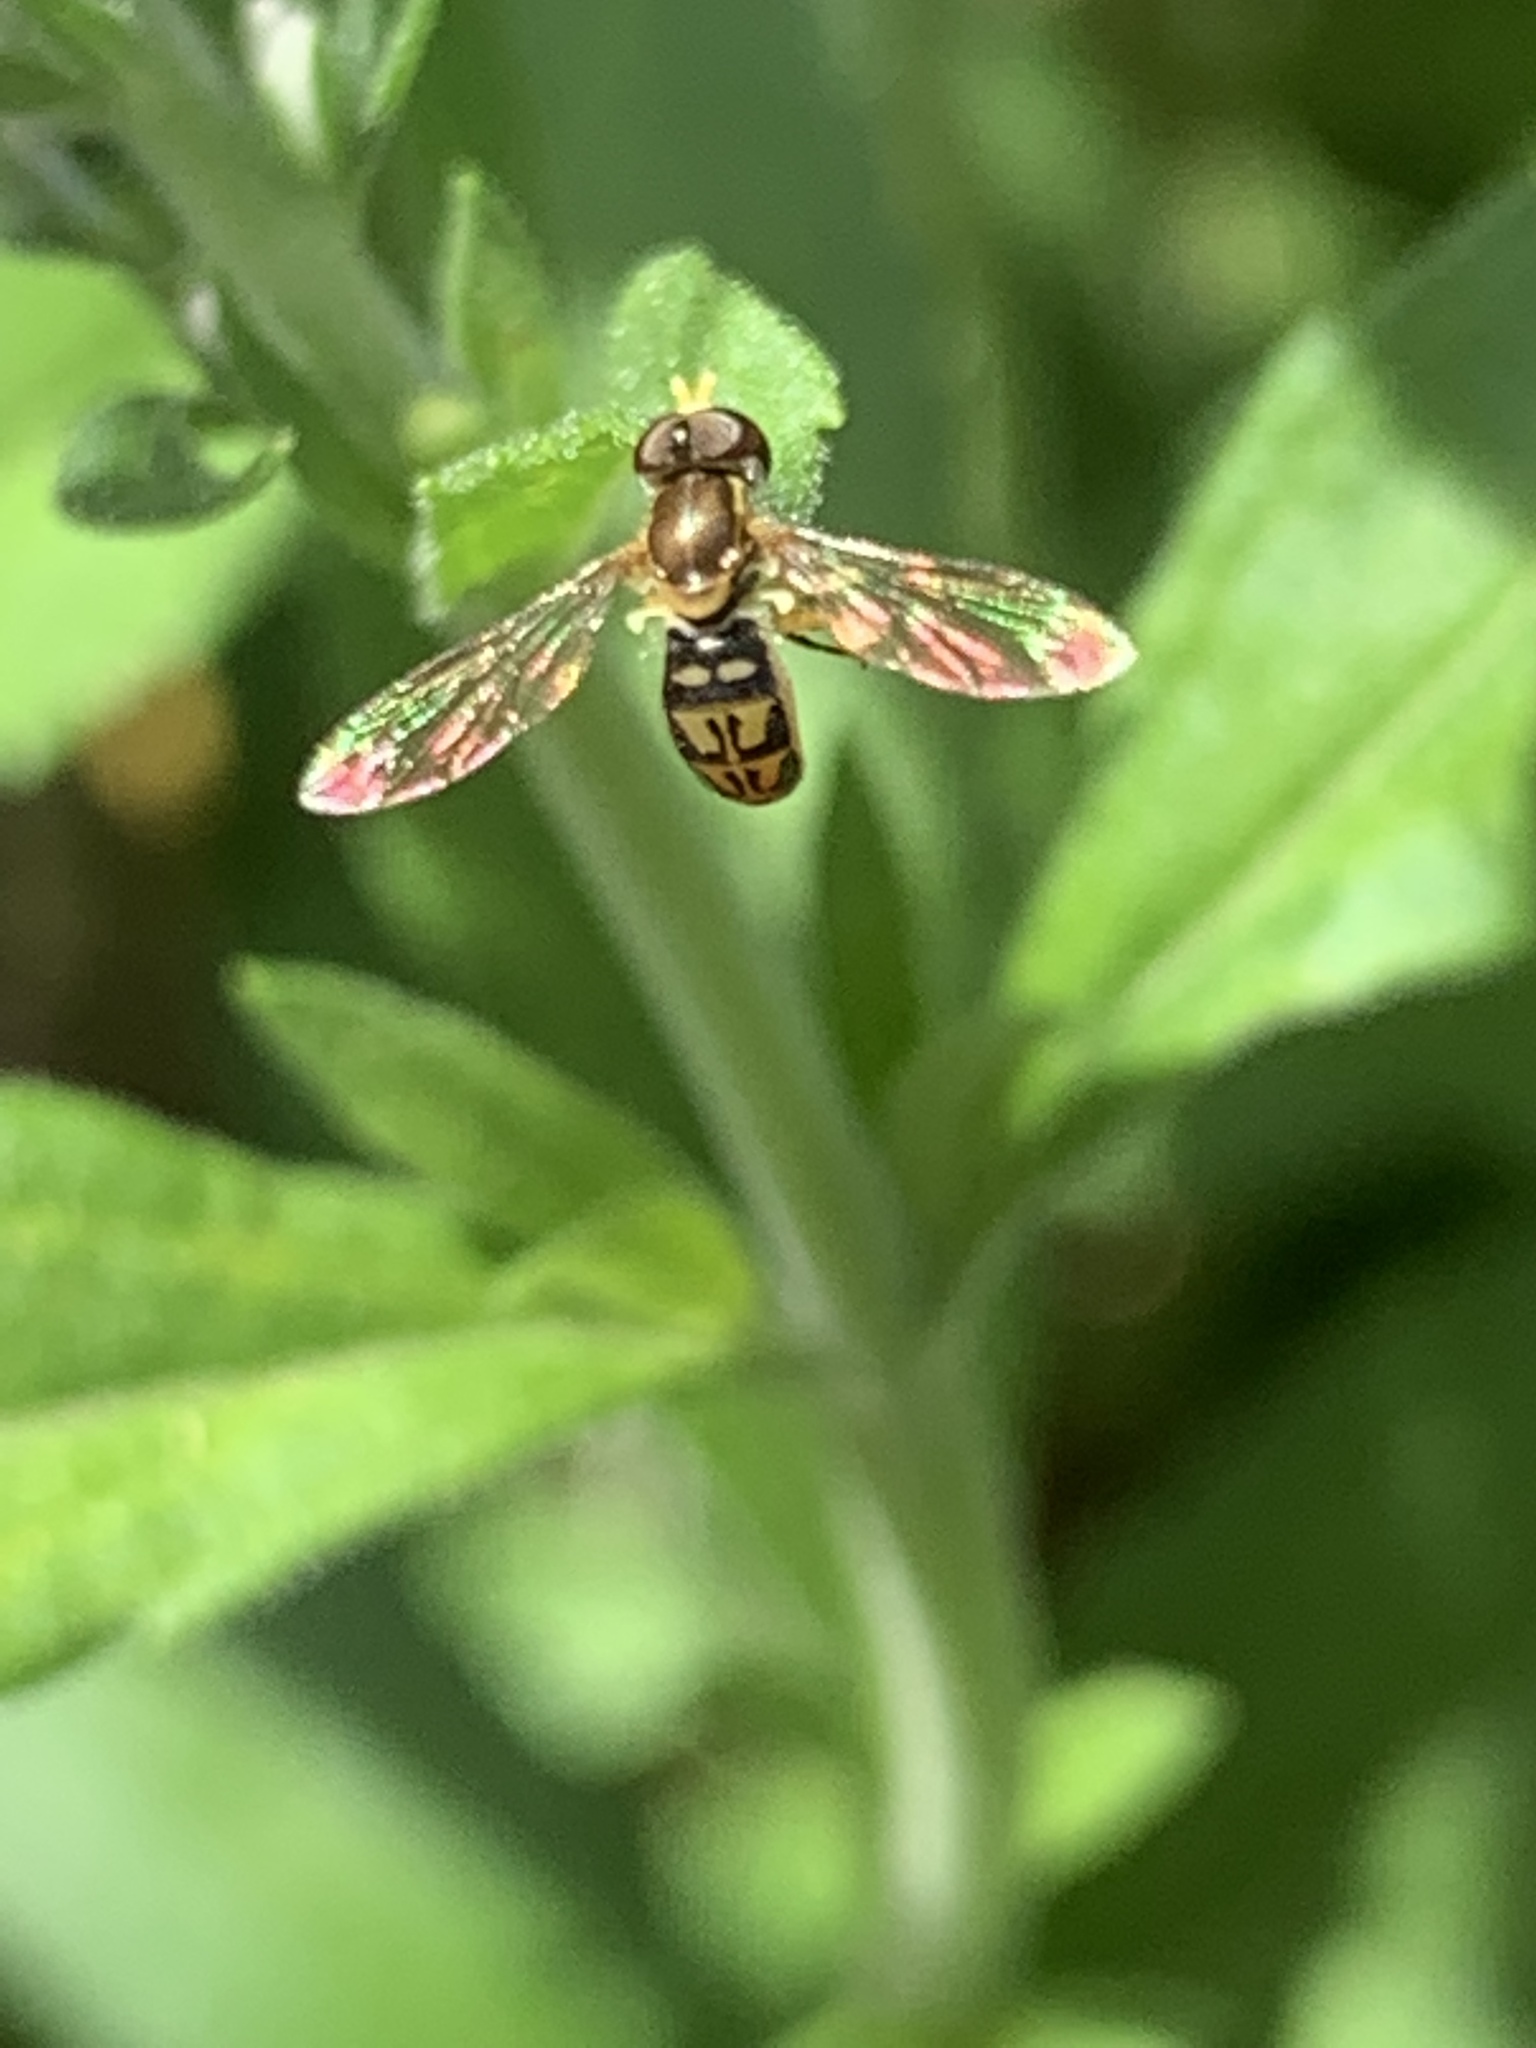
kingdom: Animalia
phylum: Arthropoda
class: Insecta
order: Diptera
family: Syrphidae
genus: Toxomerus
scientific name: Toxomerus marginatus
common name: Syrphid fly
